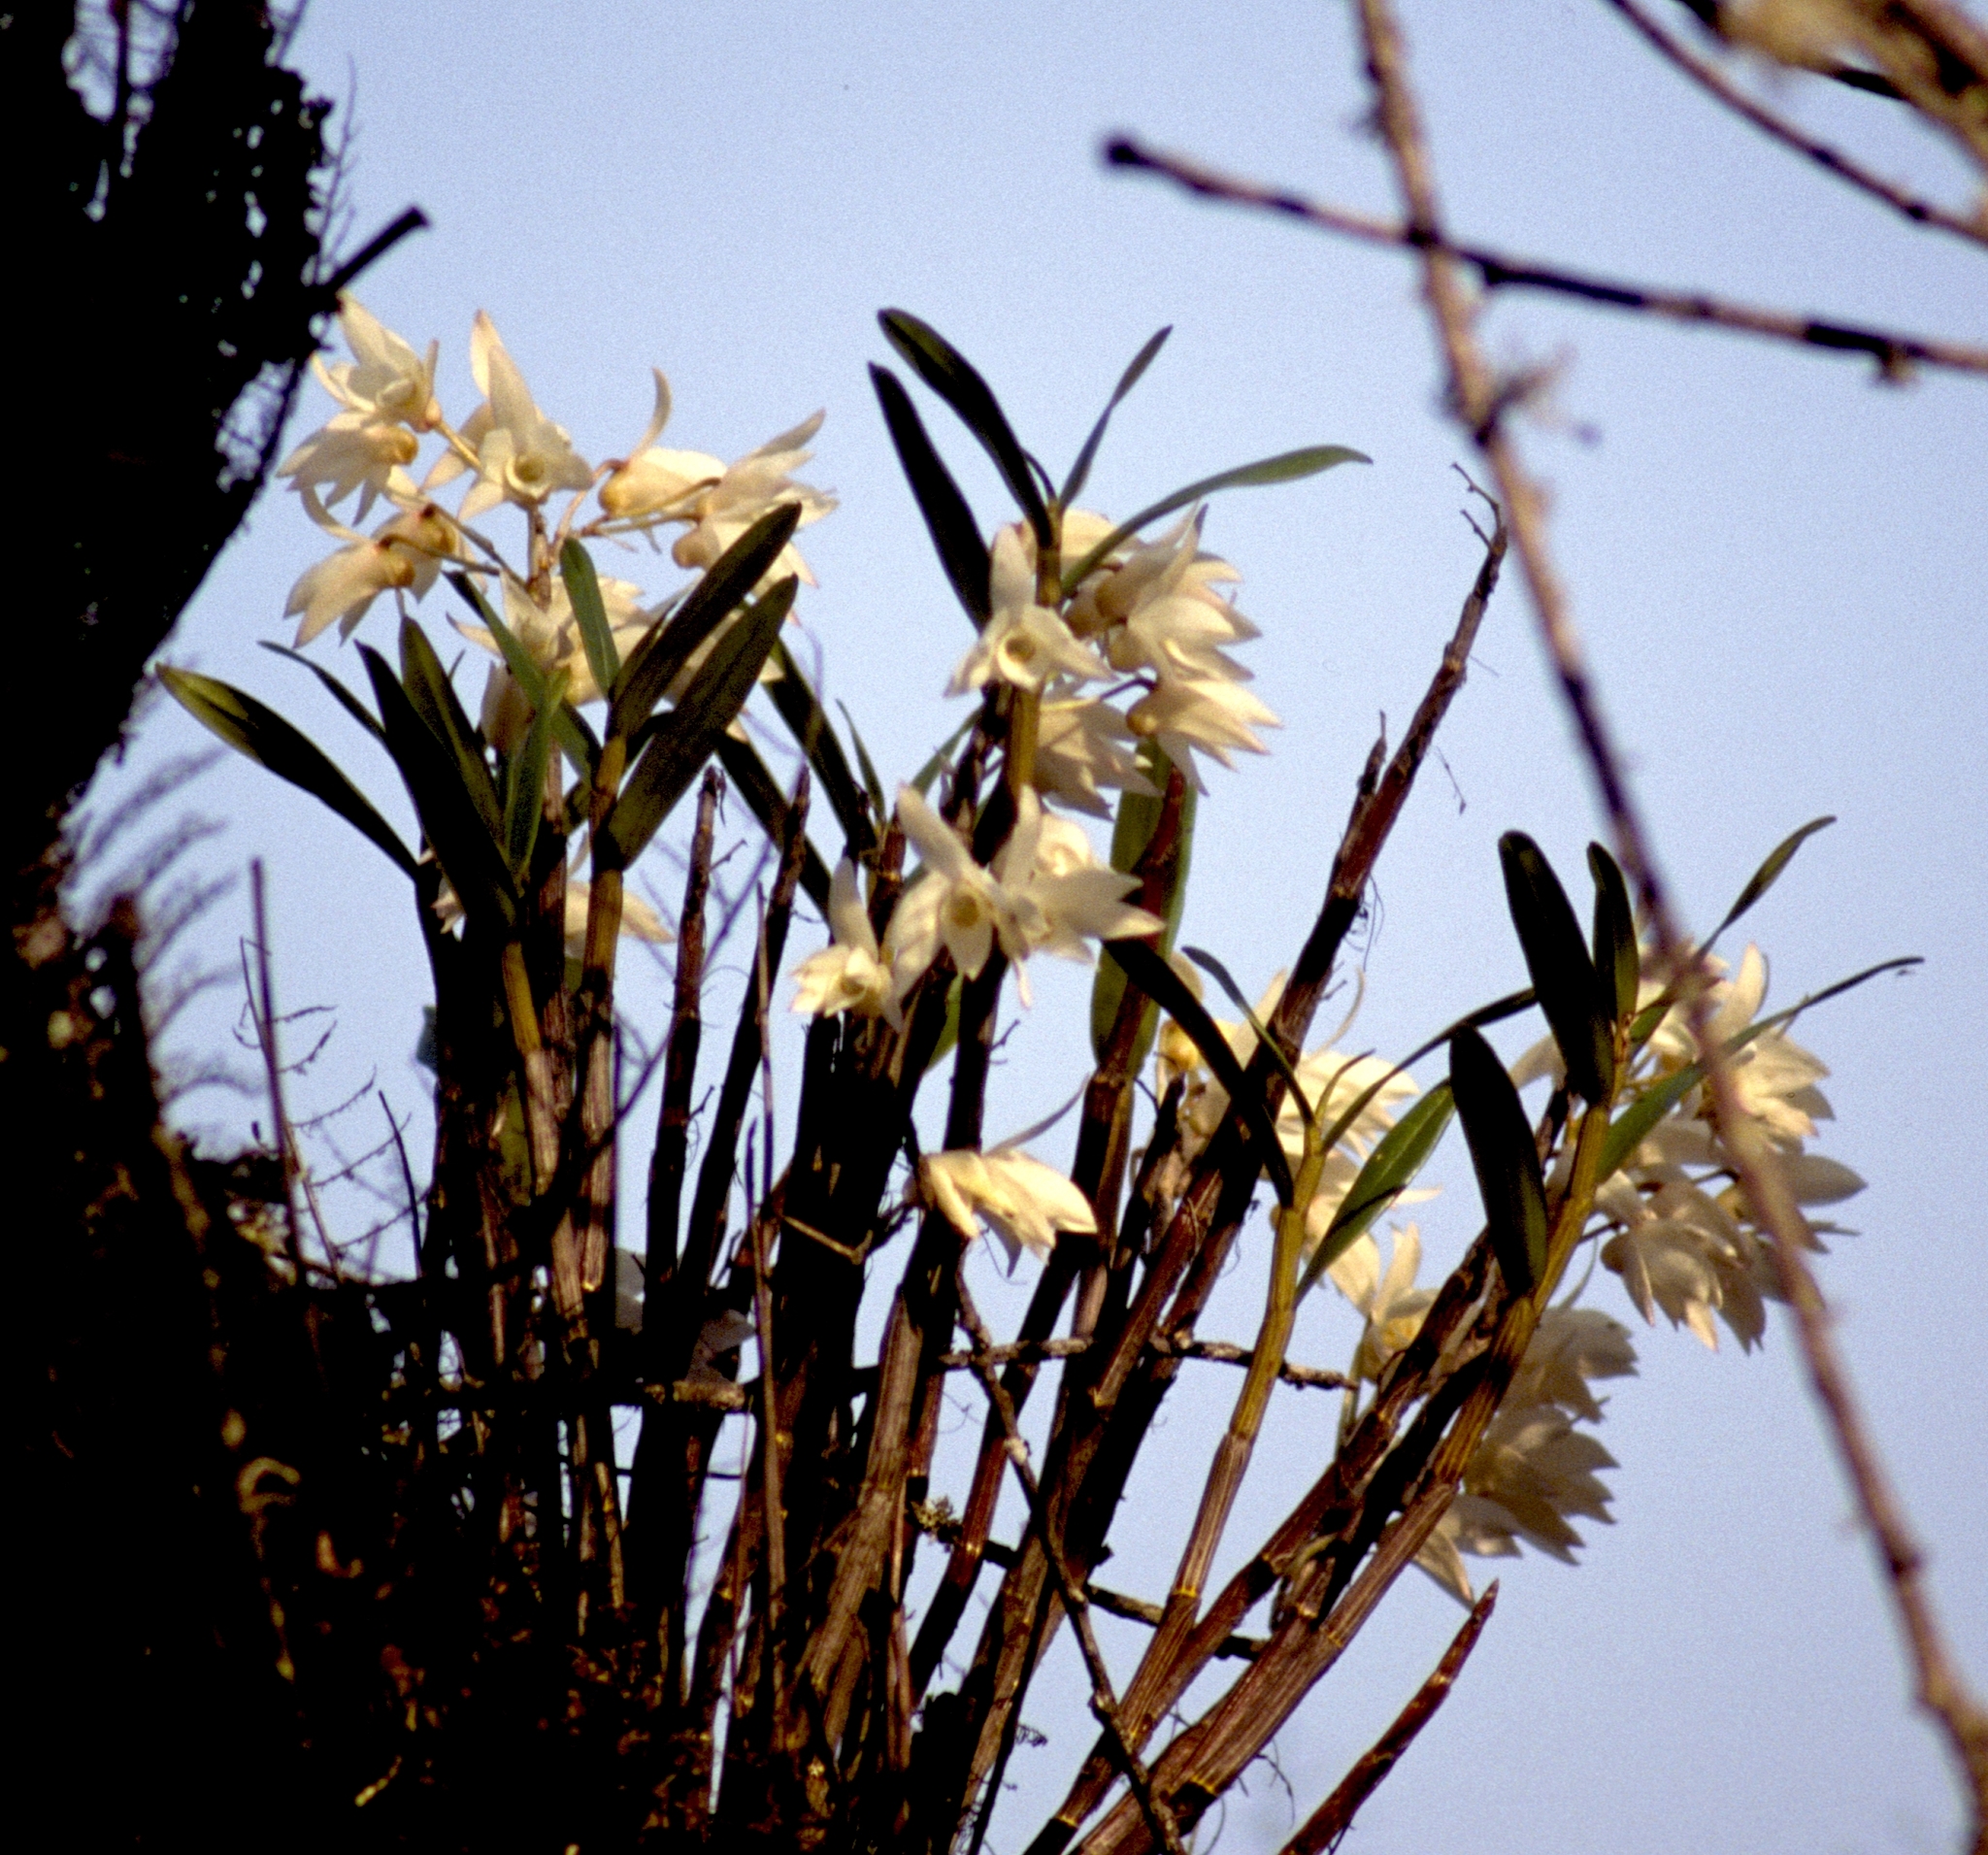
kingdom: Plantae
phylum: Tracheophyta
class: Liliopsida
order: Asparagales
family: Orchidaceae
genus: Dendrobium
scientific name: Dendrobium moniliforme
